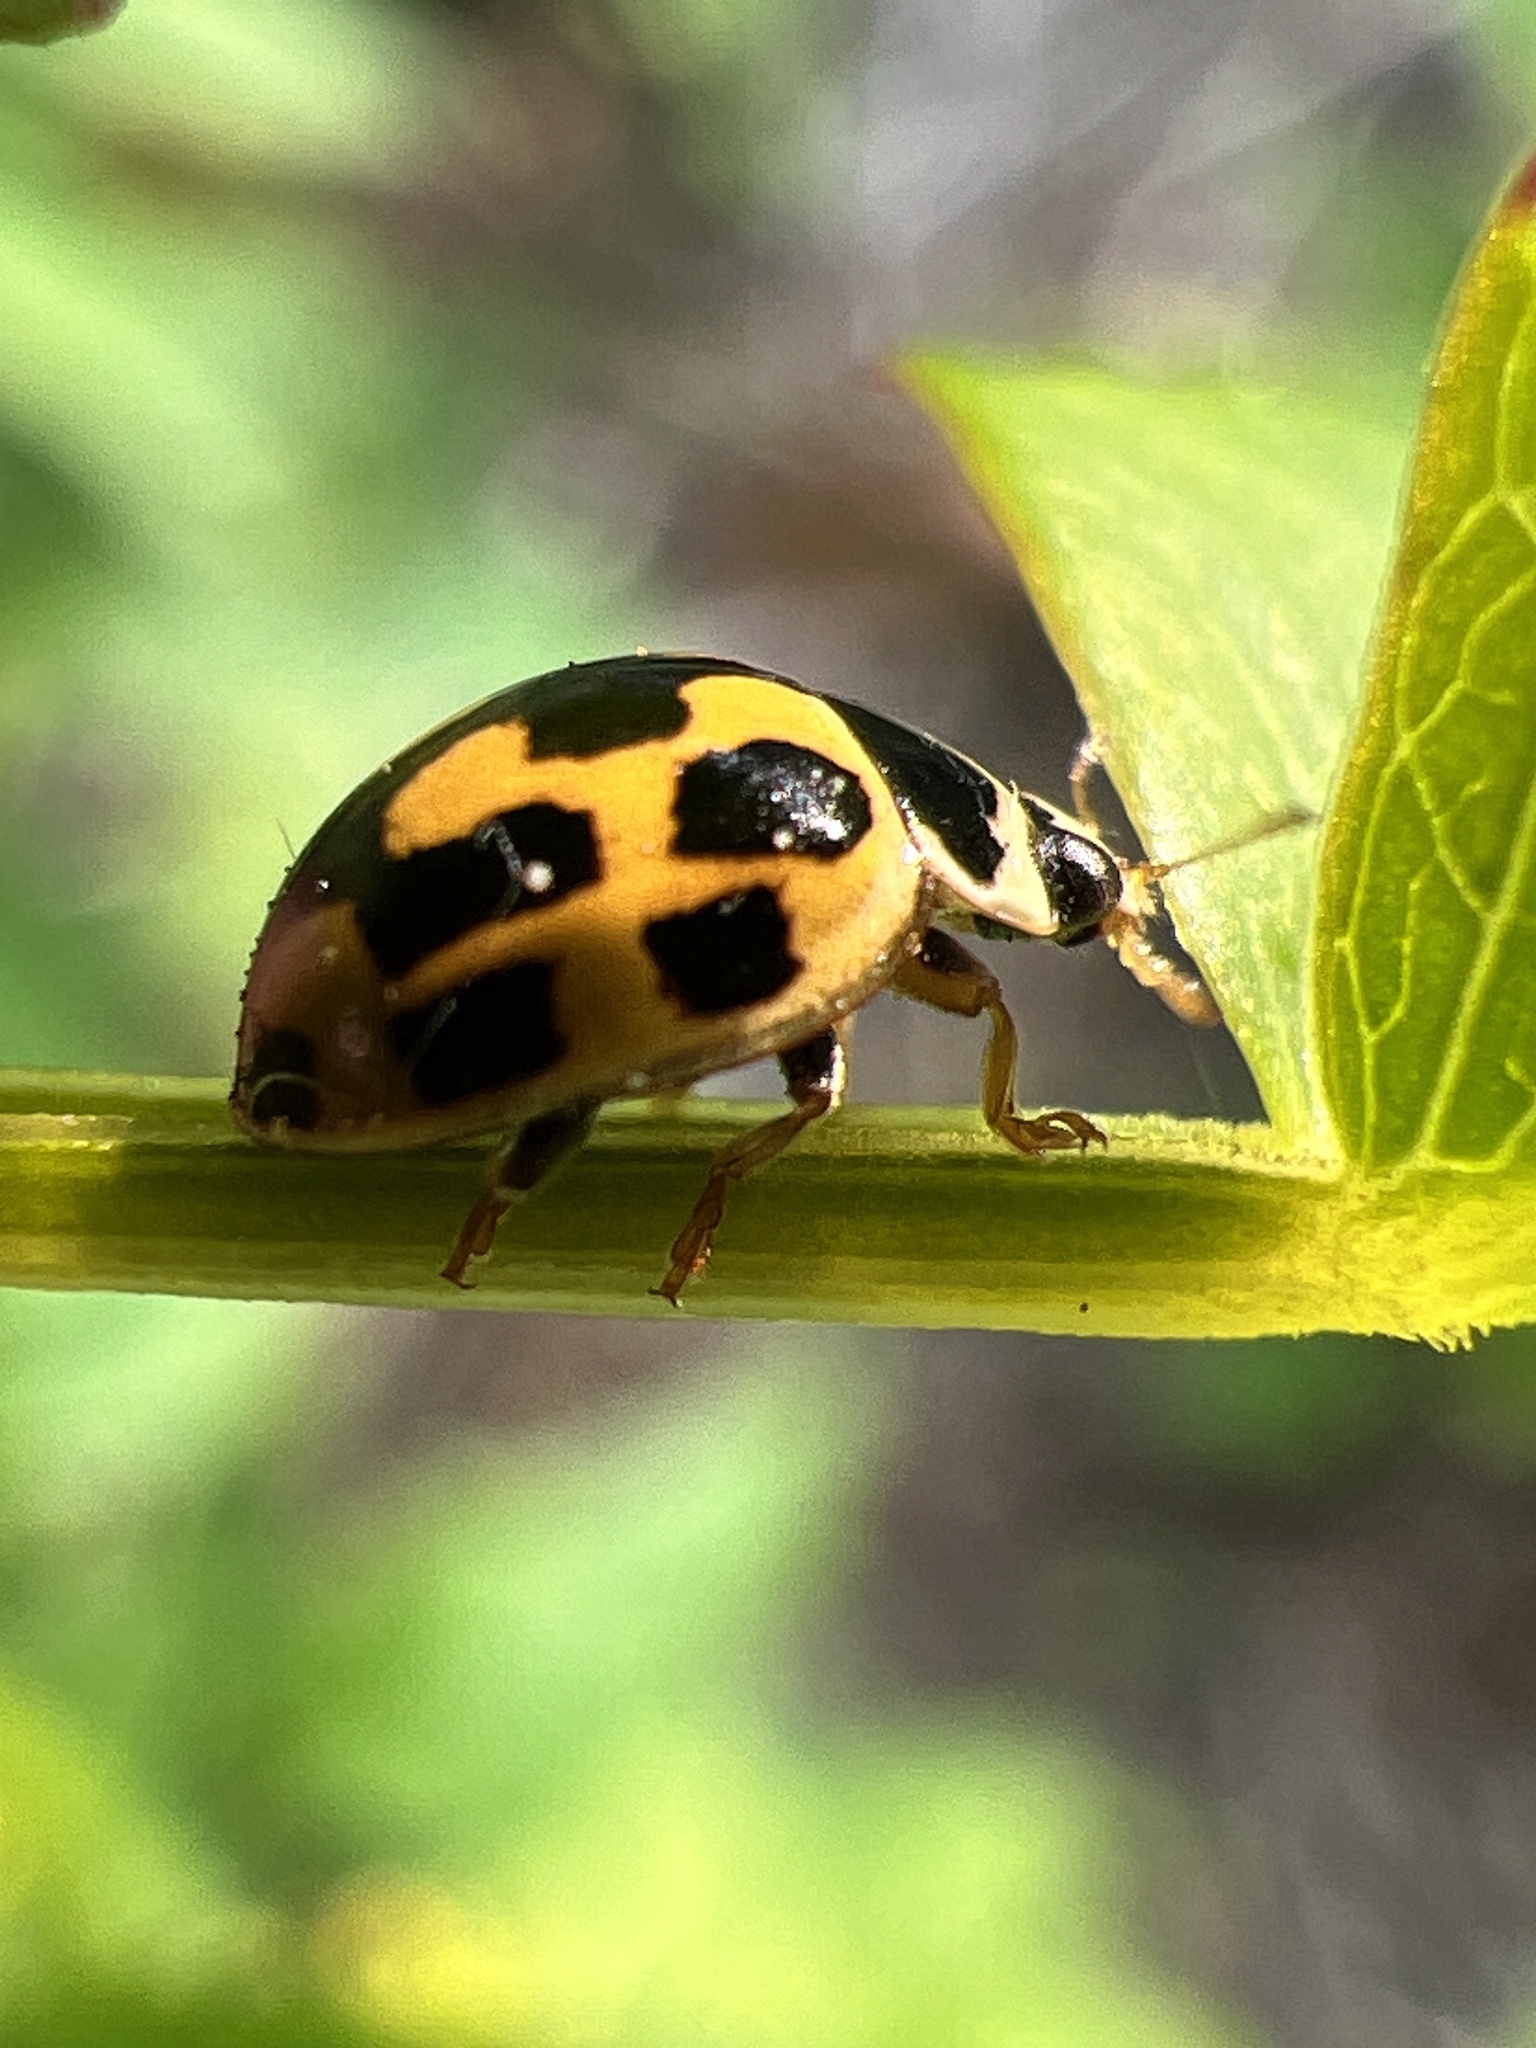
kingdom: Animalia
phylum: Arthropoda
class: Insecta
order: Coleoptera
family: Coccinellidae
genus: Propylaea
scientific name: Propylaea quatuordecimpunctata
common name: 14-spotted ladybird beetle
